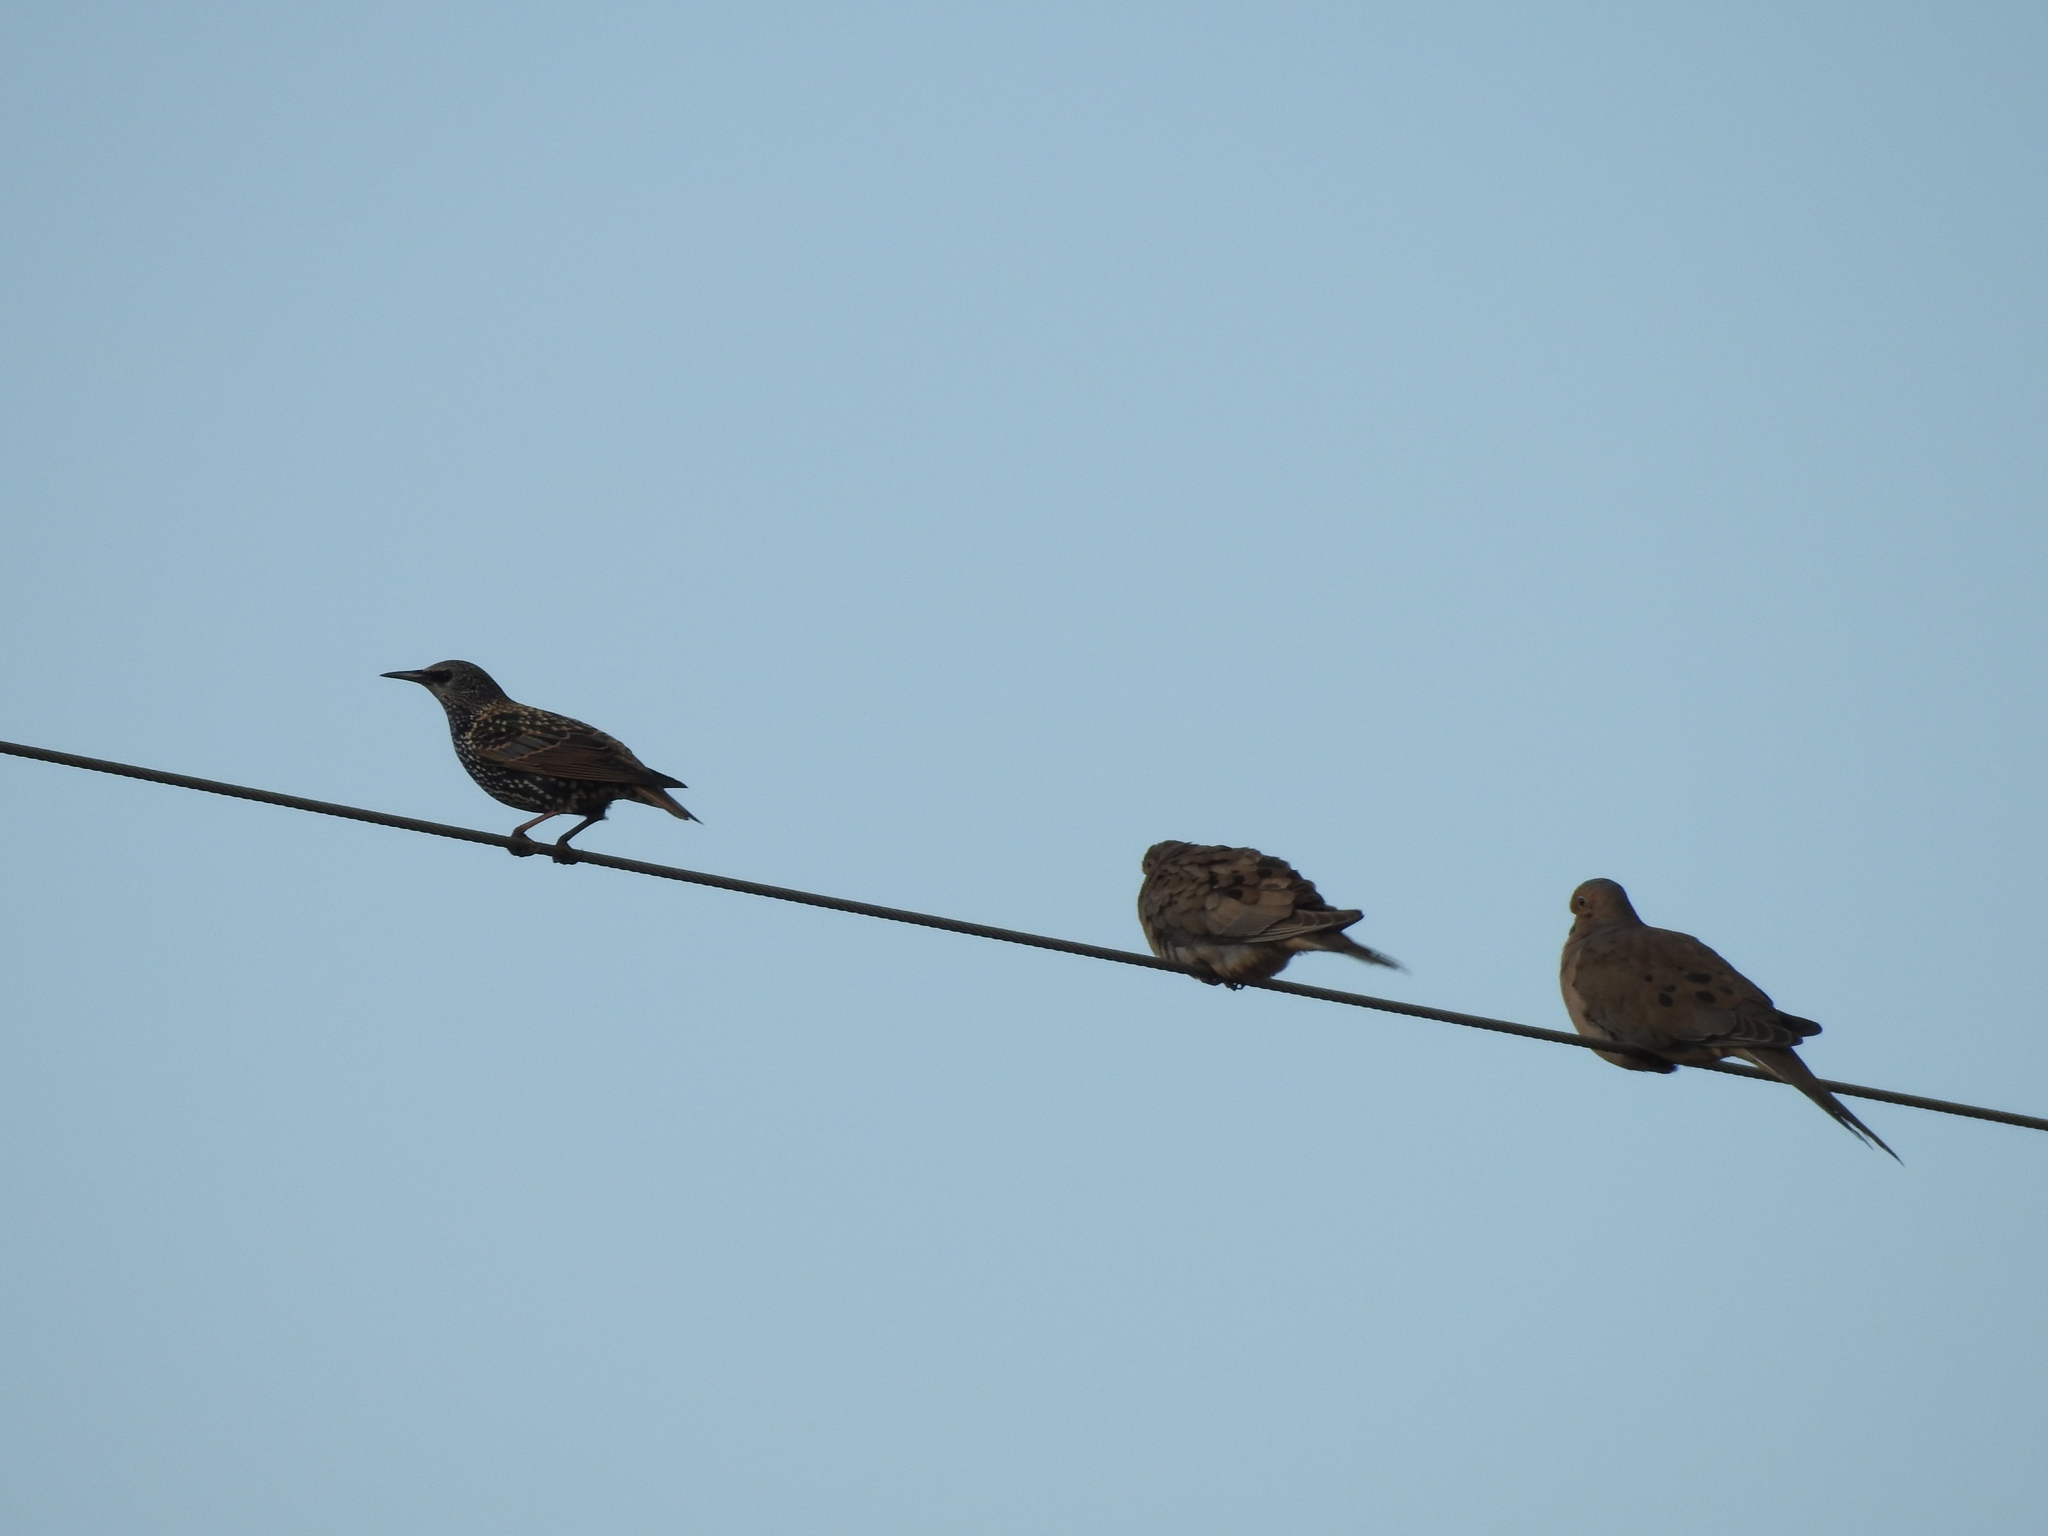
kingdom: Animalia
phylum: Chordata
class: Aves
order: Passeriformes
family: Sturnidae
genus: Sturnus
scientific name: Sturnus vulgaris
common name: Common starling
